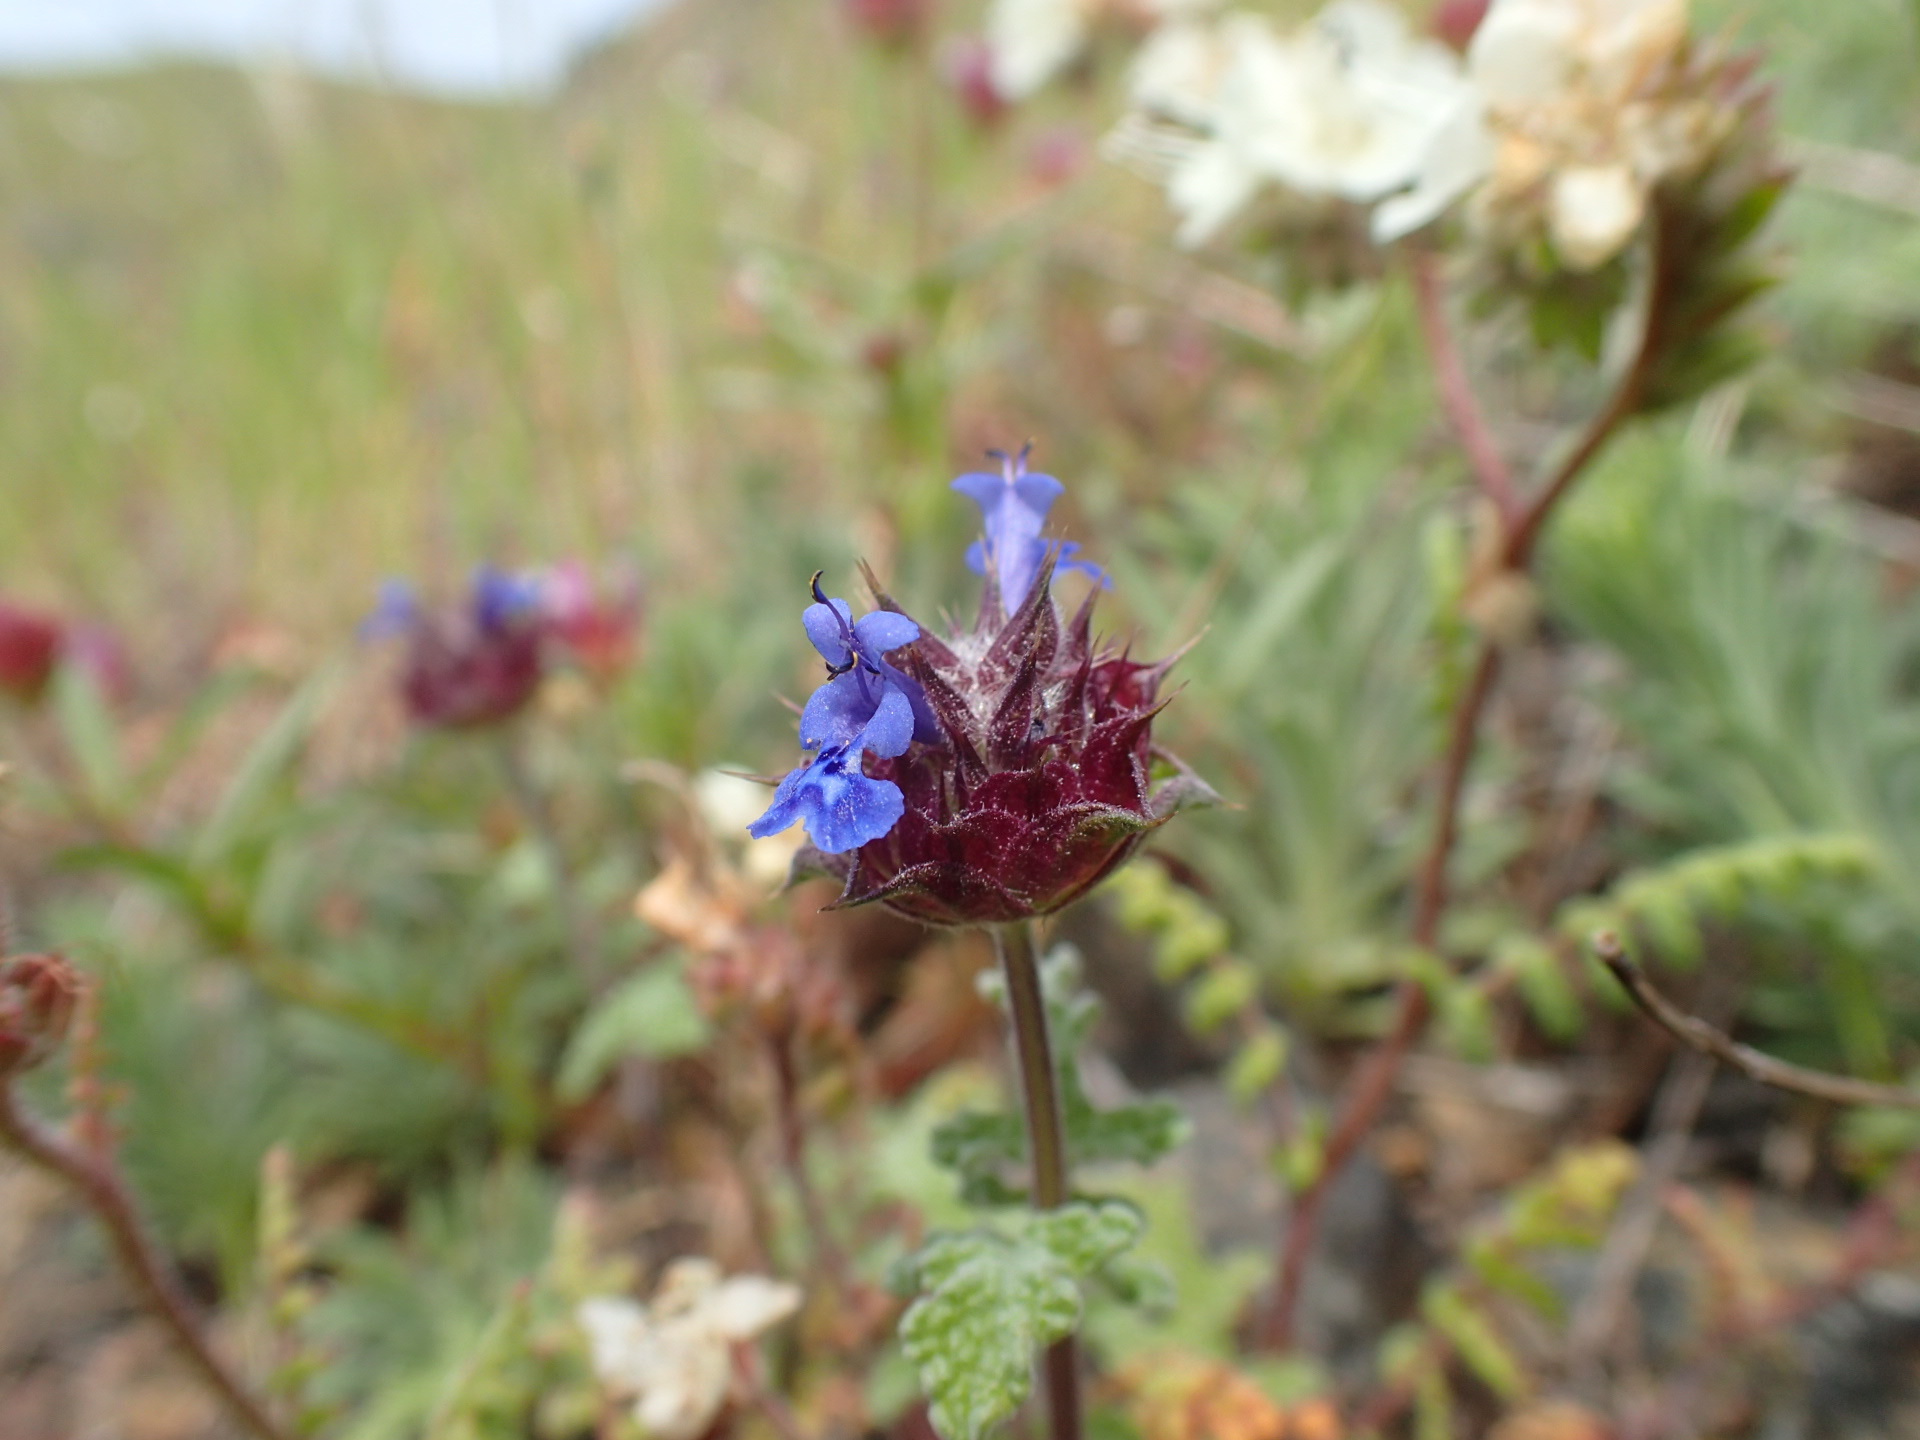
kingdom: Plantae
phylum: Tracheophyta
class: Magnoliopsida
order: Lamiales
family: Lamiaceae
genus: Salvia
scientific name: Salvia columbariae
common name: Chia
